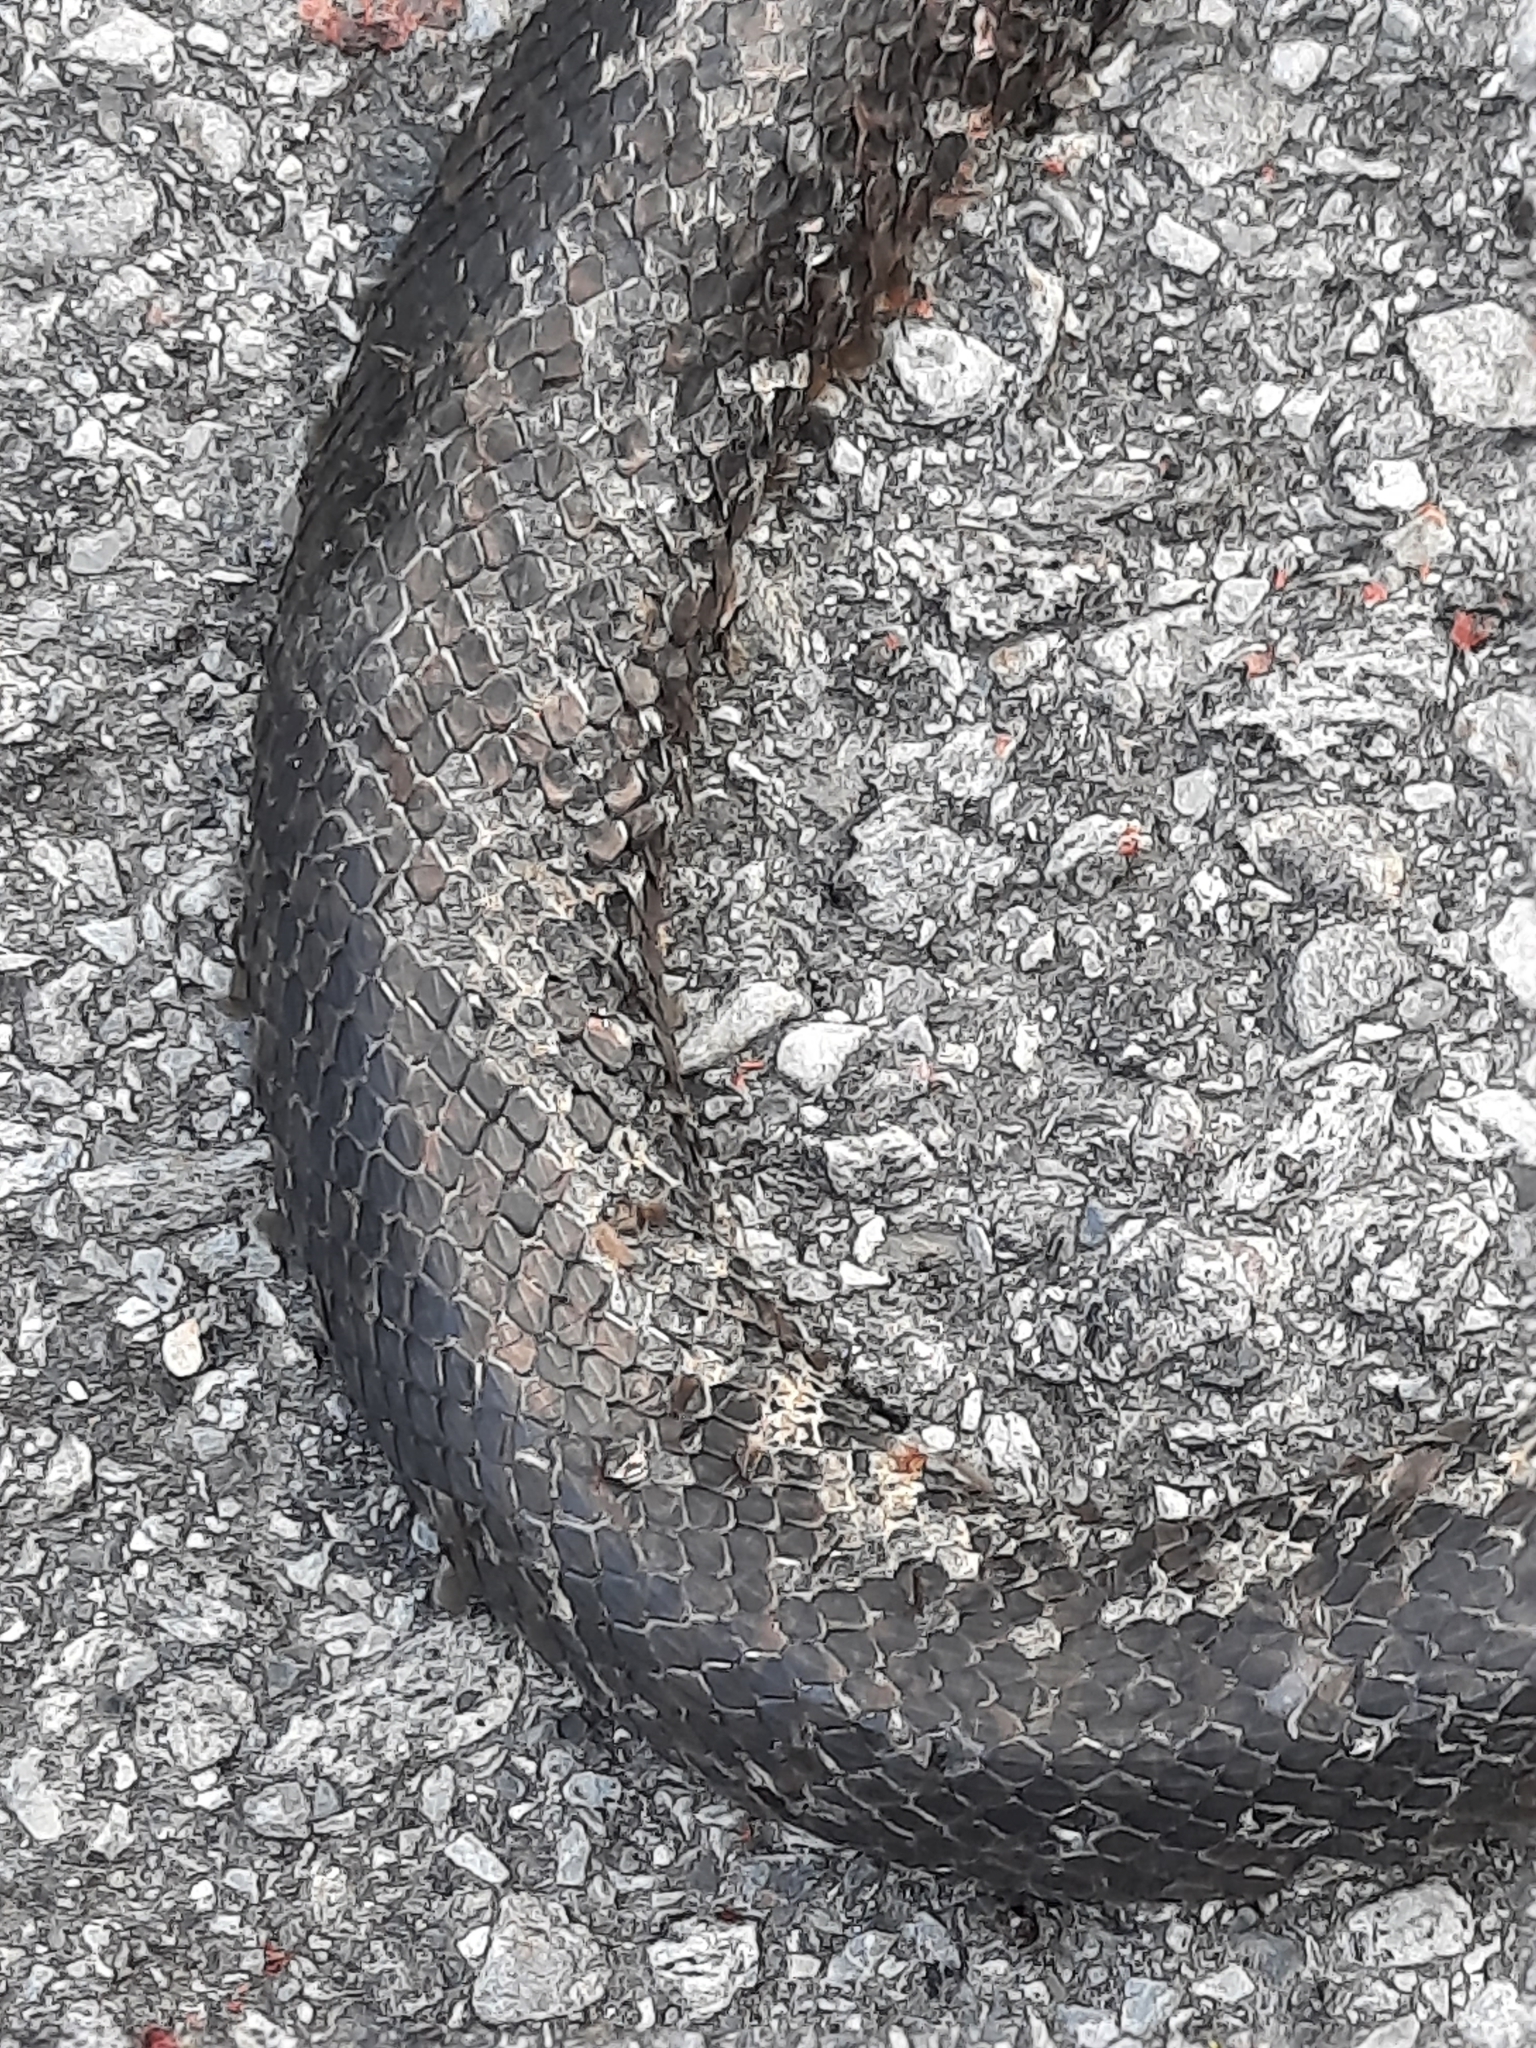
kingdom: Animalia
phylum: Chordata
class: Squamata
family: Colubridae
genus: Pantherophis
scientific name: Pantherophis alleghaniensis
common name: Eastern rat snake
